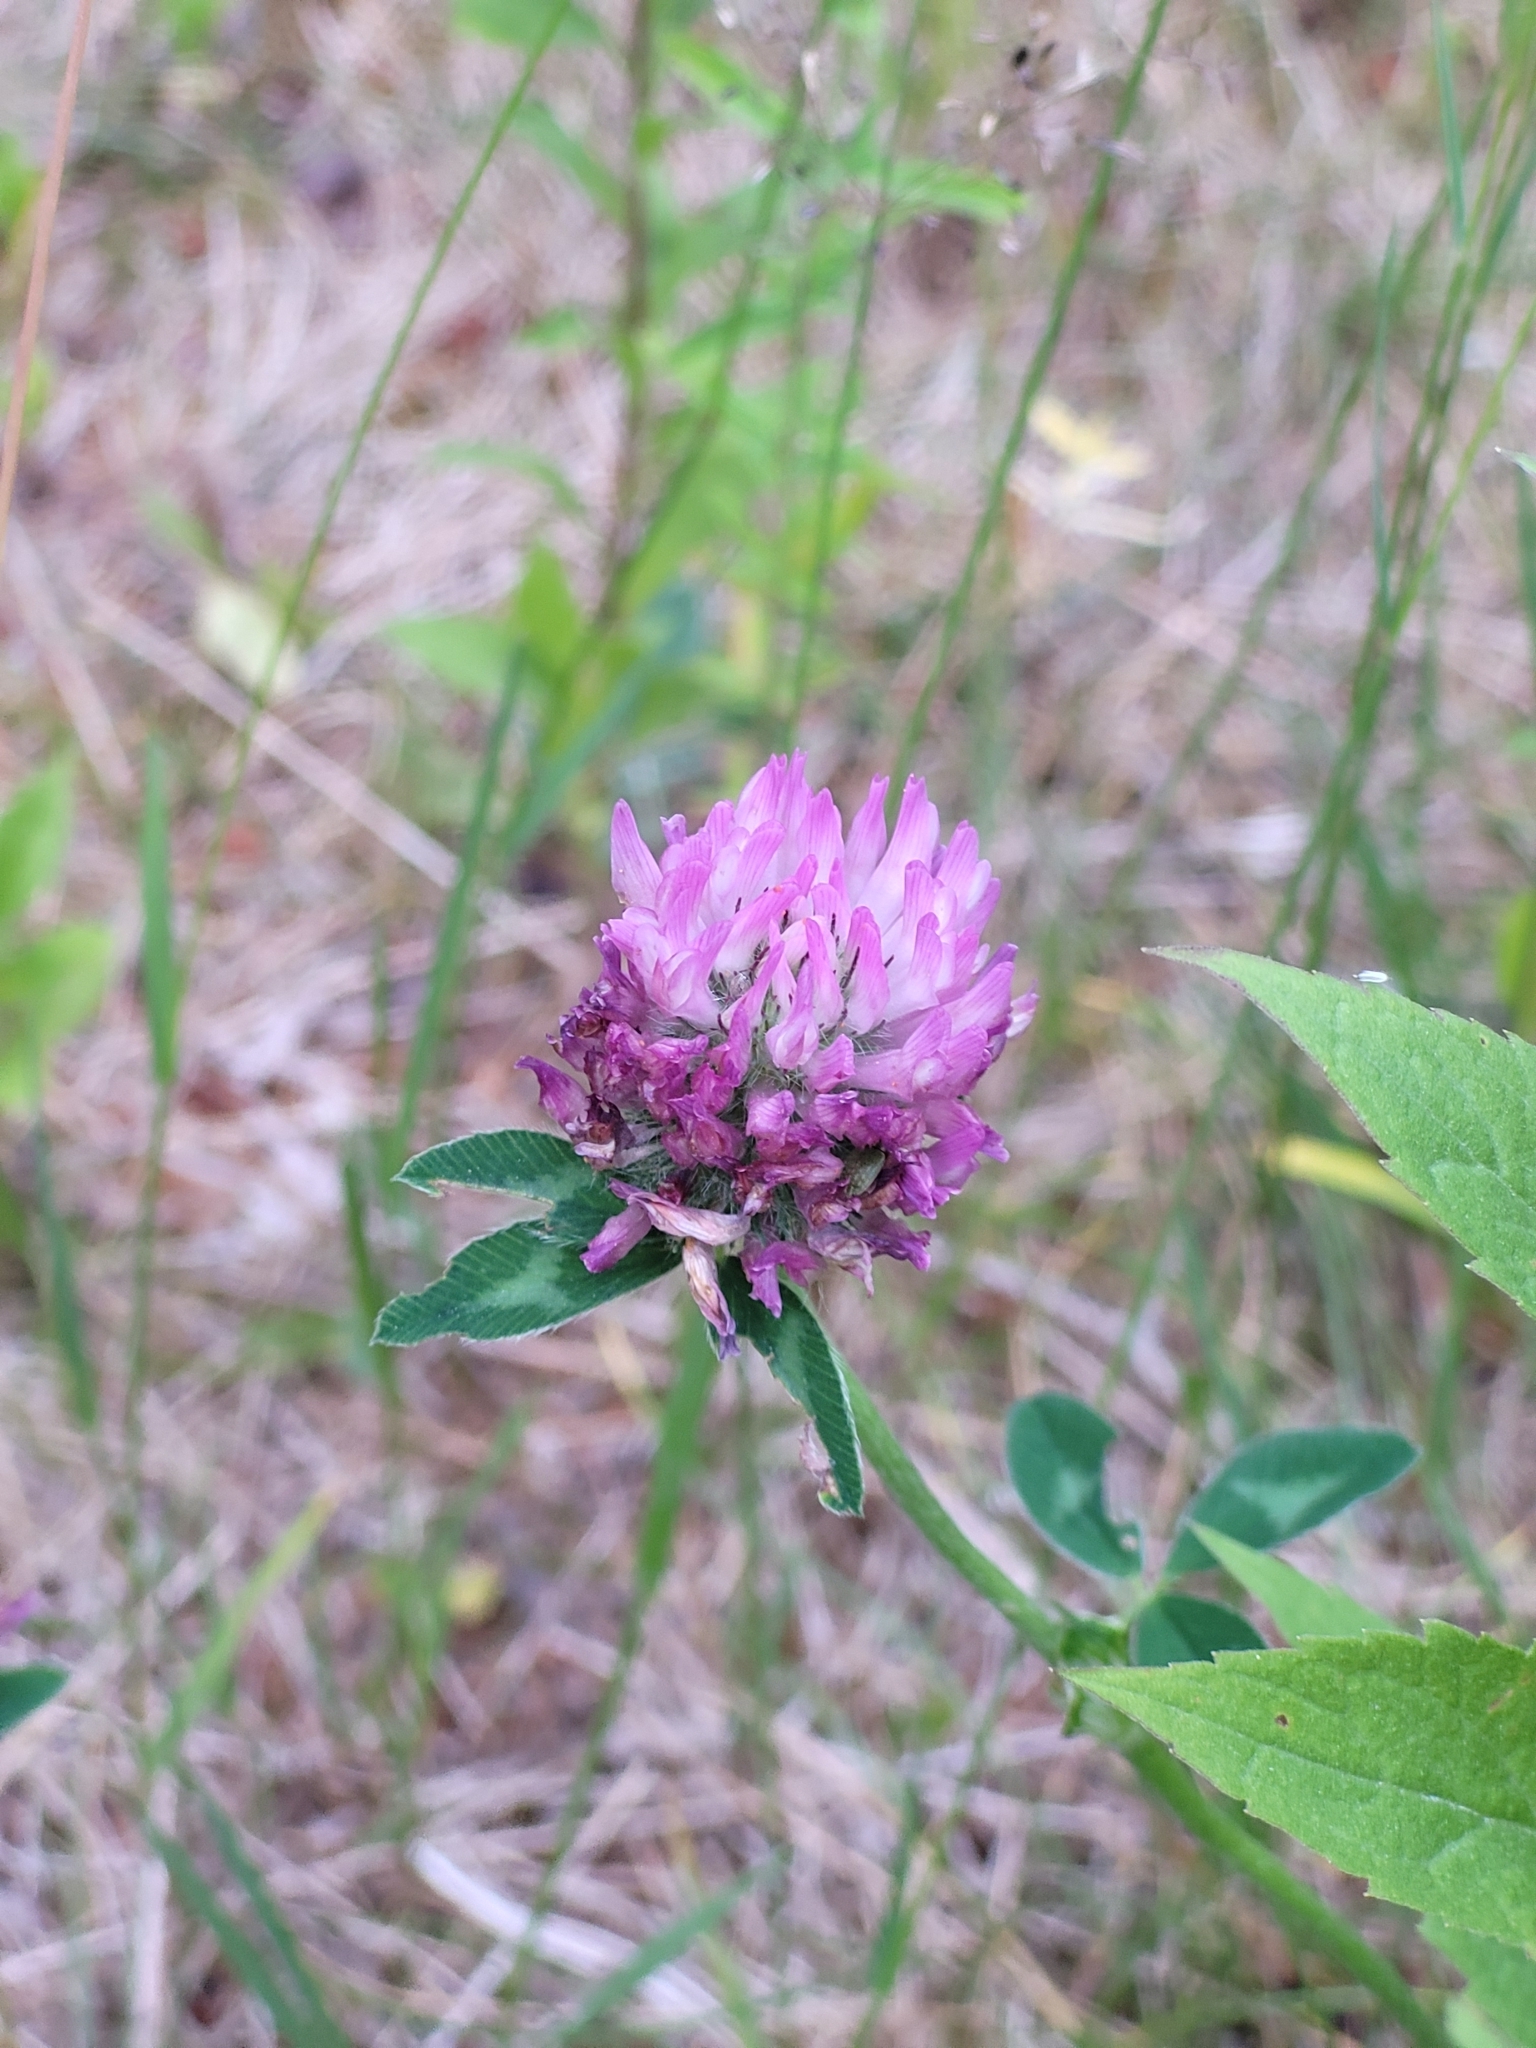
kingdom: Plantae
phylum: Tracheophyta
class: Magnoliopsida
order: Fabales
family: Fabaceae
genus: Trifolium
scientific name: Trifolium pratense
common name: Red clover
